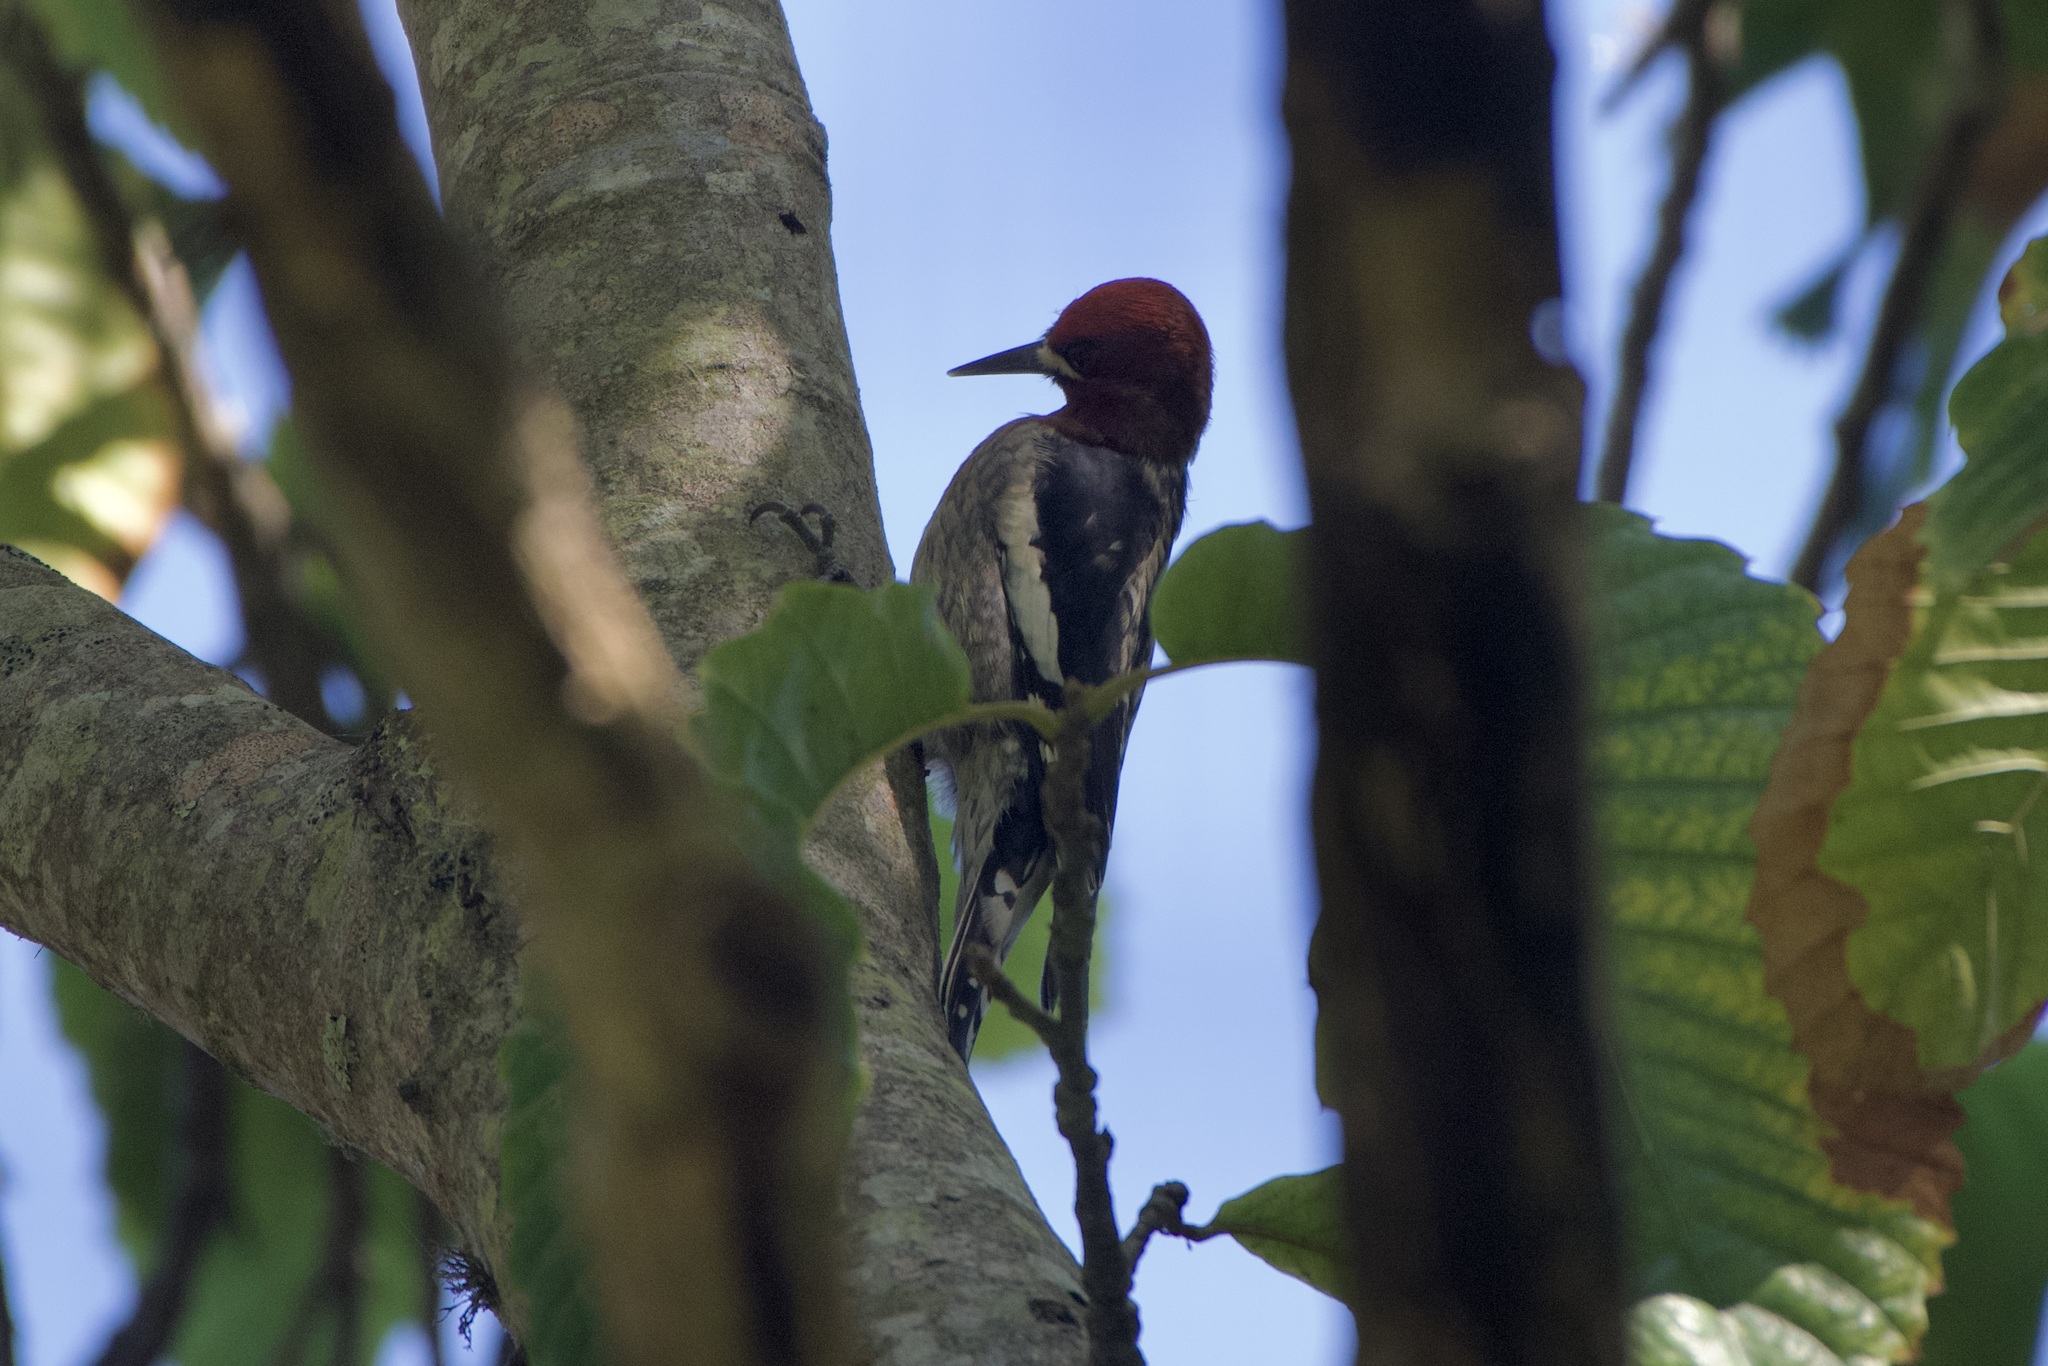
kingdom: Animalia
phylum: Chordata
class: Aves
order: Piciformes
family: Picidae
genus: Sphyrapicus
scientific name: Sphyrapicus ruber
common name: Red-breasted sapsucker
